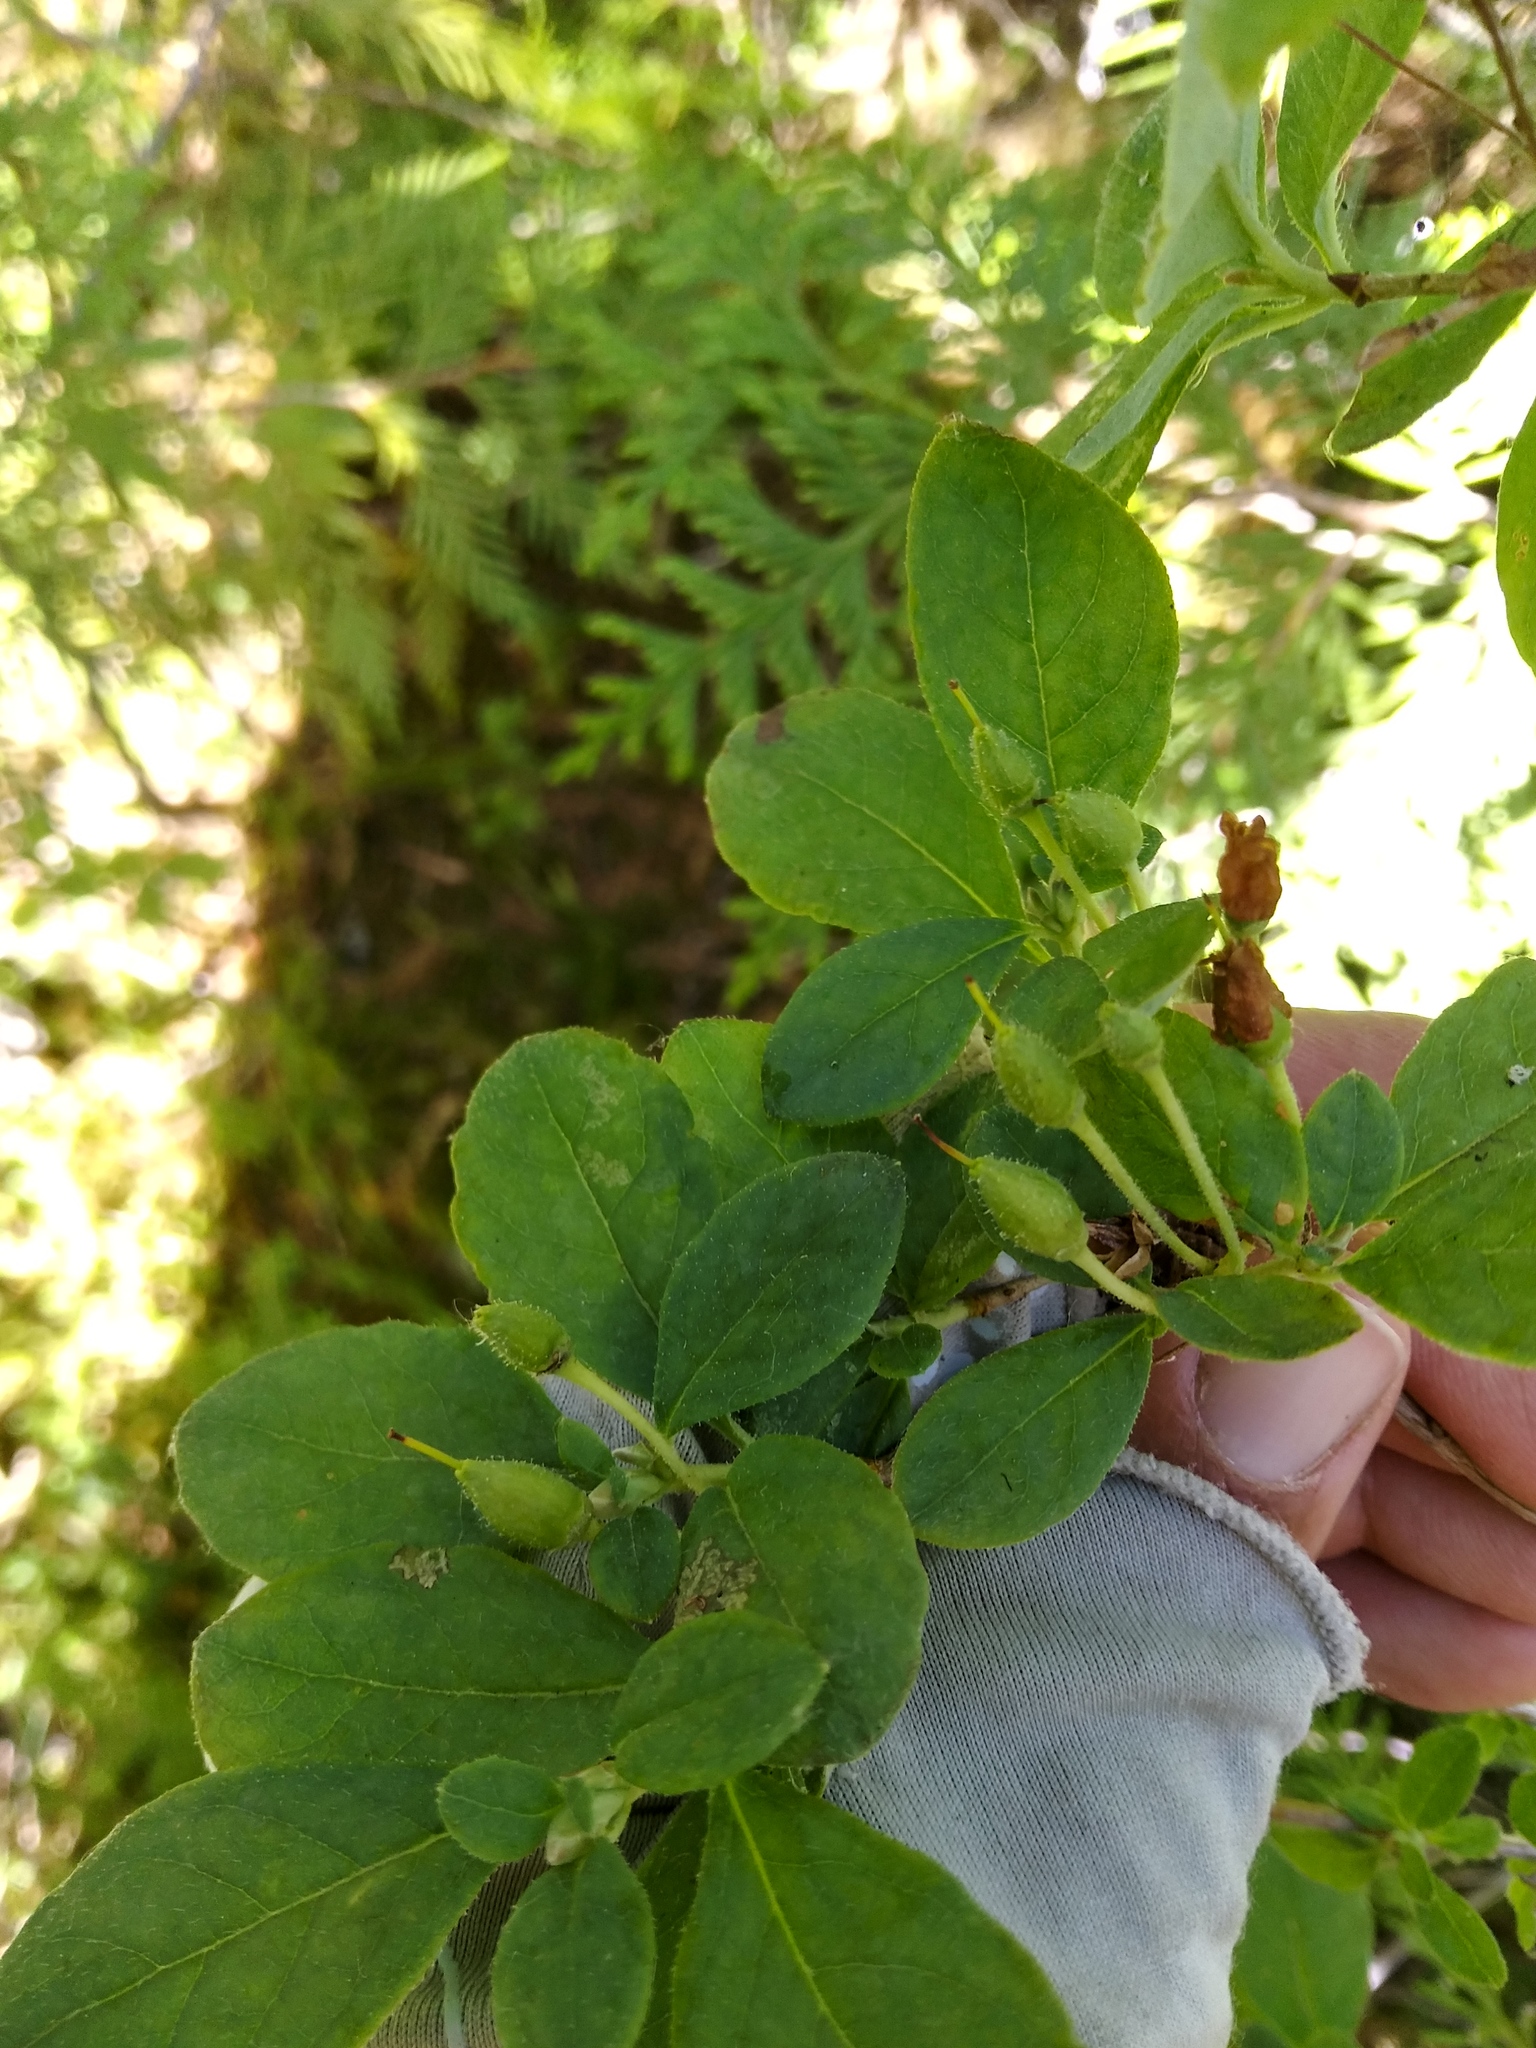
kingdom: Plantae
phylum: Tracheophyta
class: Magnoliopsida
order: Ericales
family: Ericaceae
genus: Rhododendron
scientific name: Rhododendron menziesii
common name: Pacific menziesia
